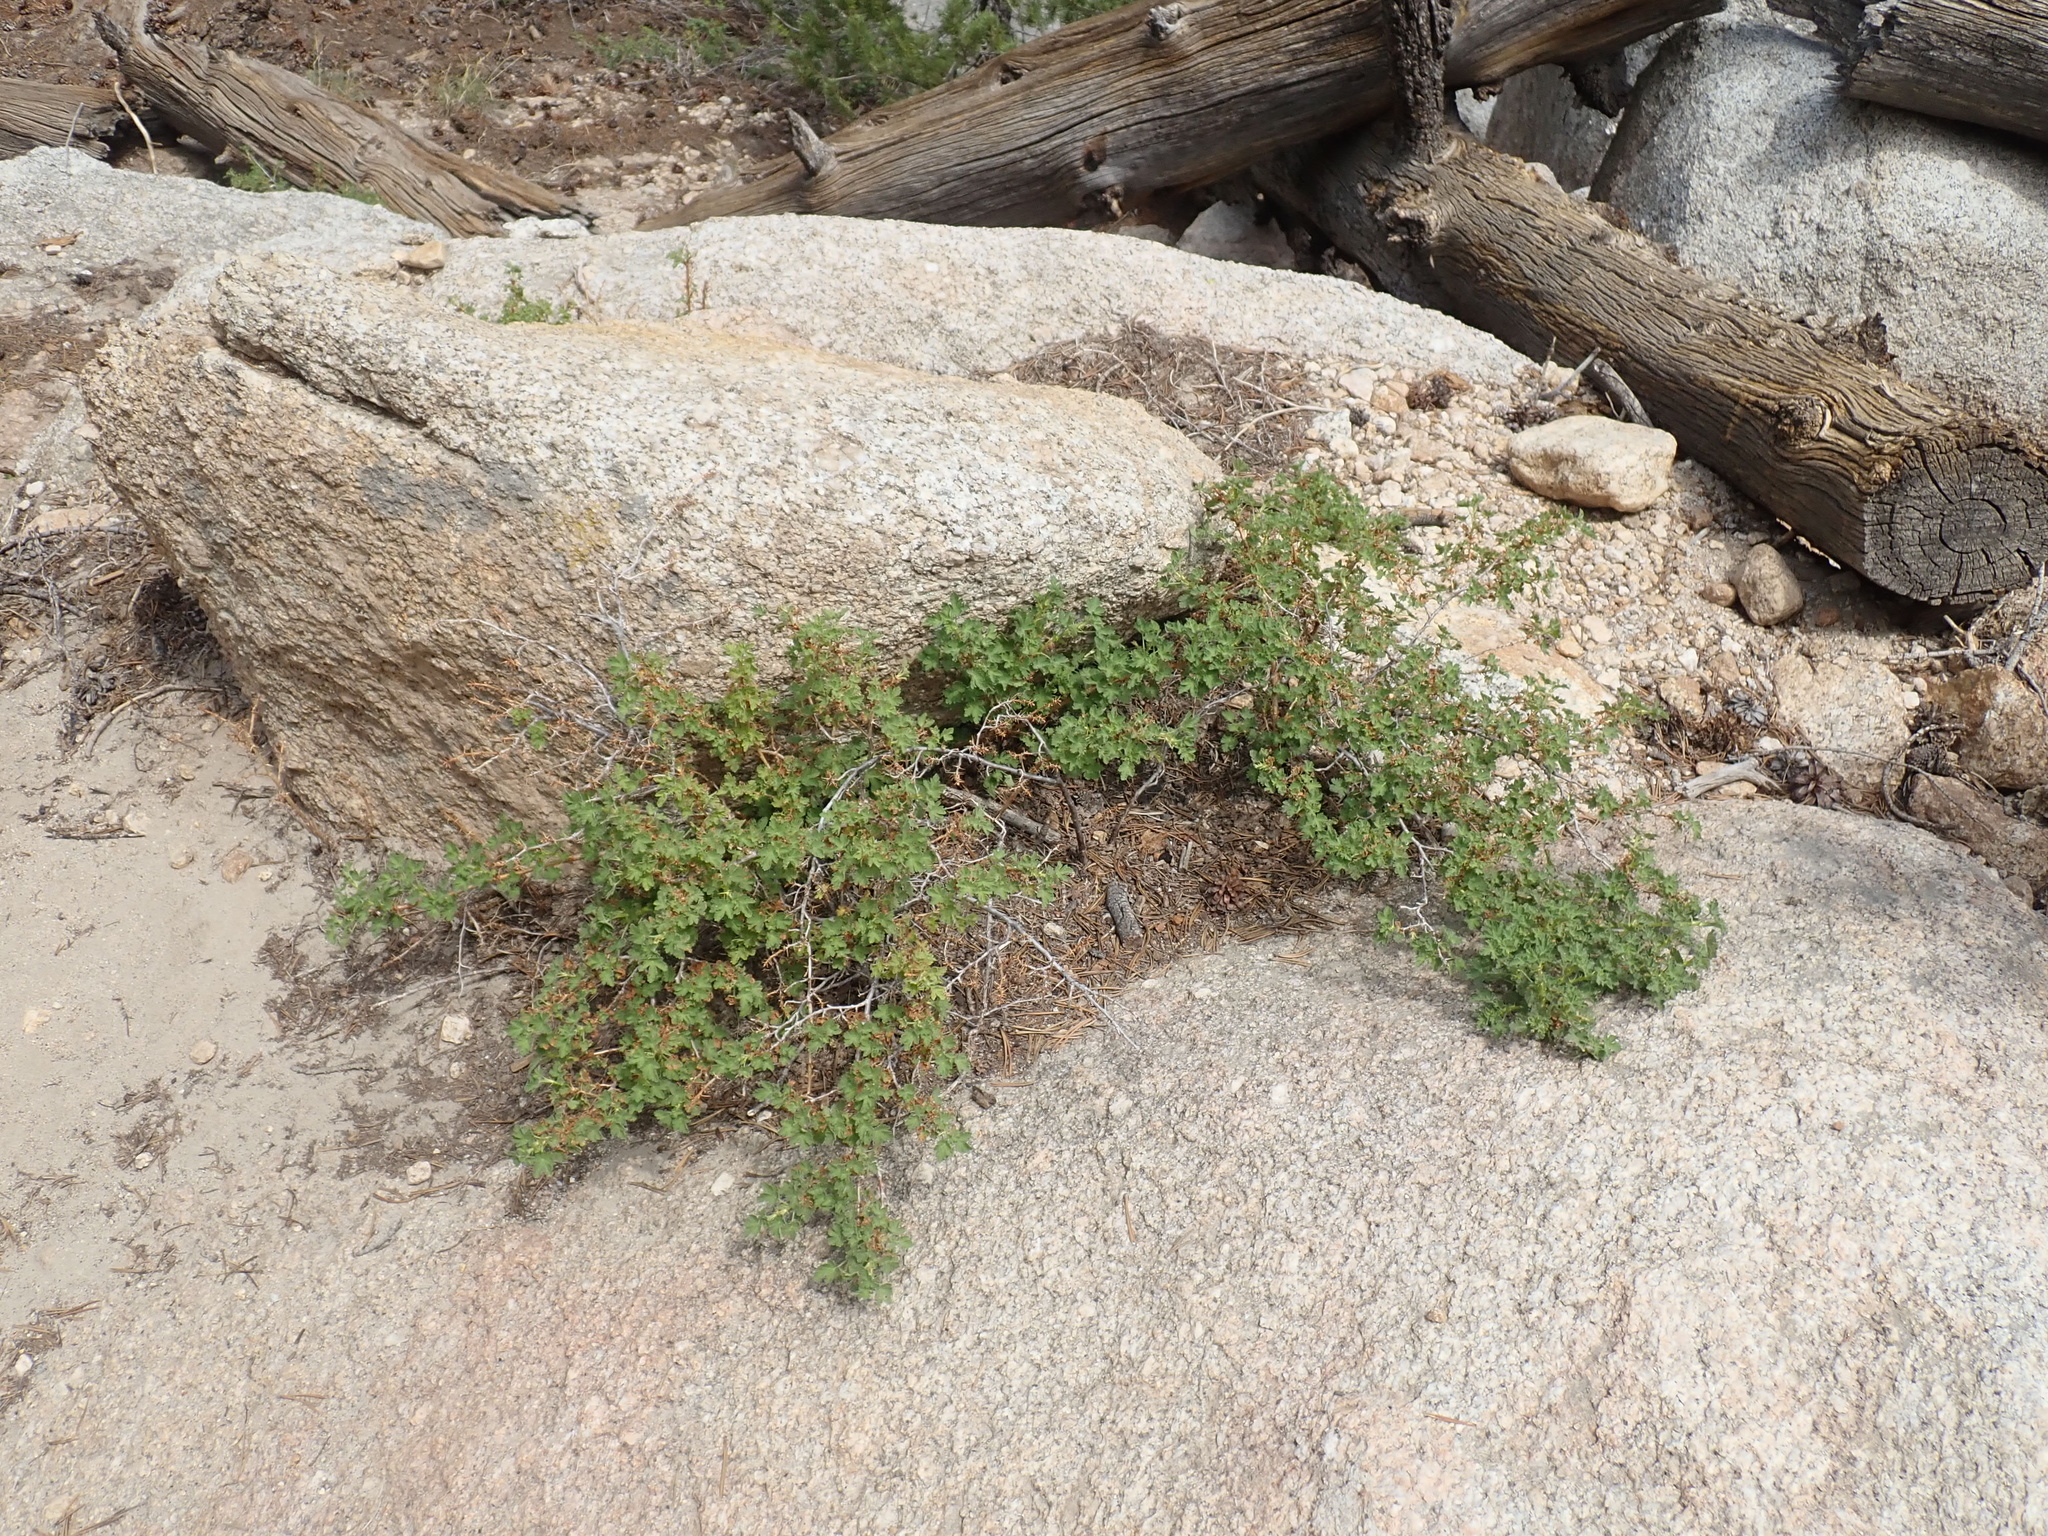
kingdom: Plantae
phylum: Tracheophyta
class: Magnoliopsida
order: Saxifragales
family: Grossulariaceae
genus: Ribes
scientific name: Ribes montigenum
